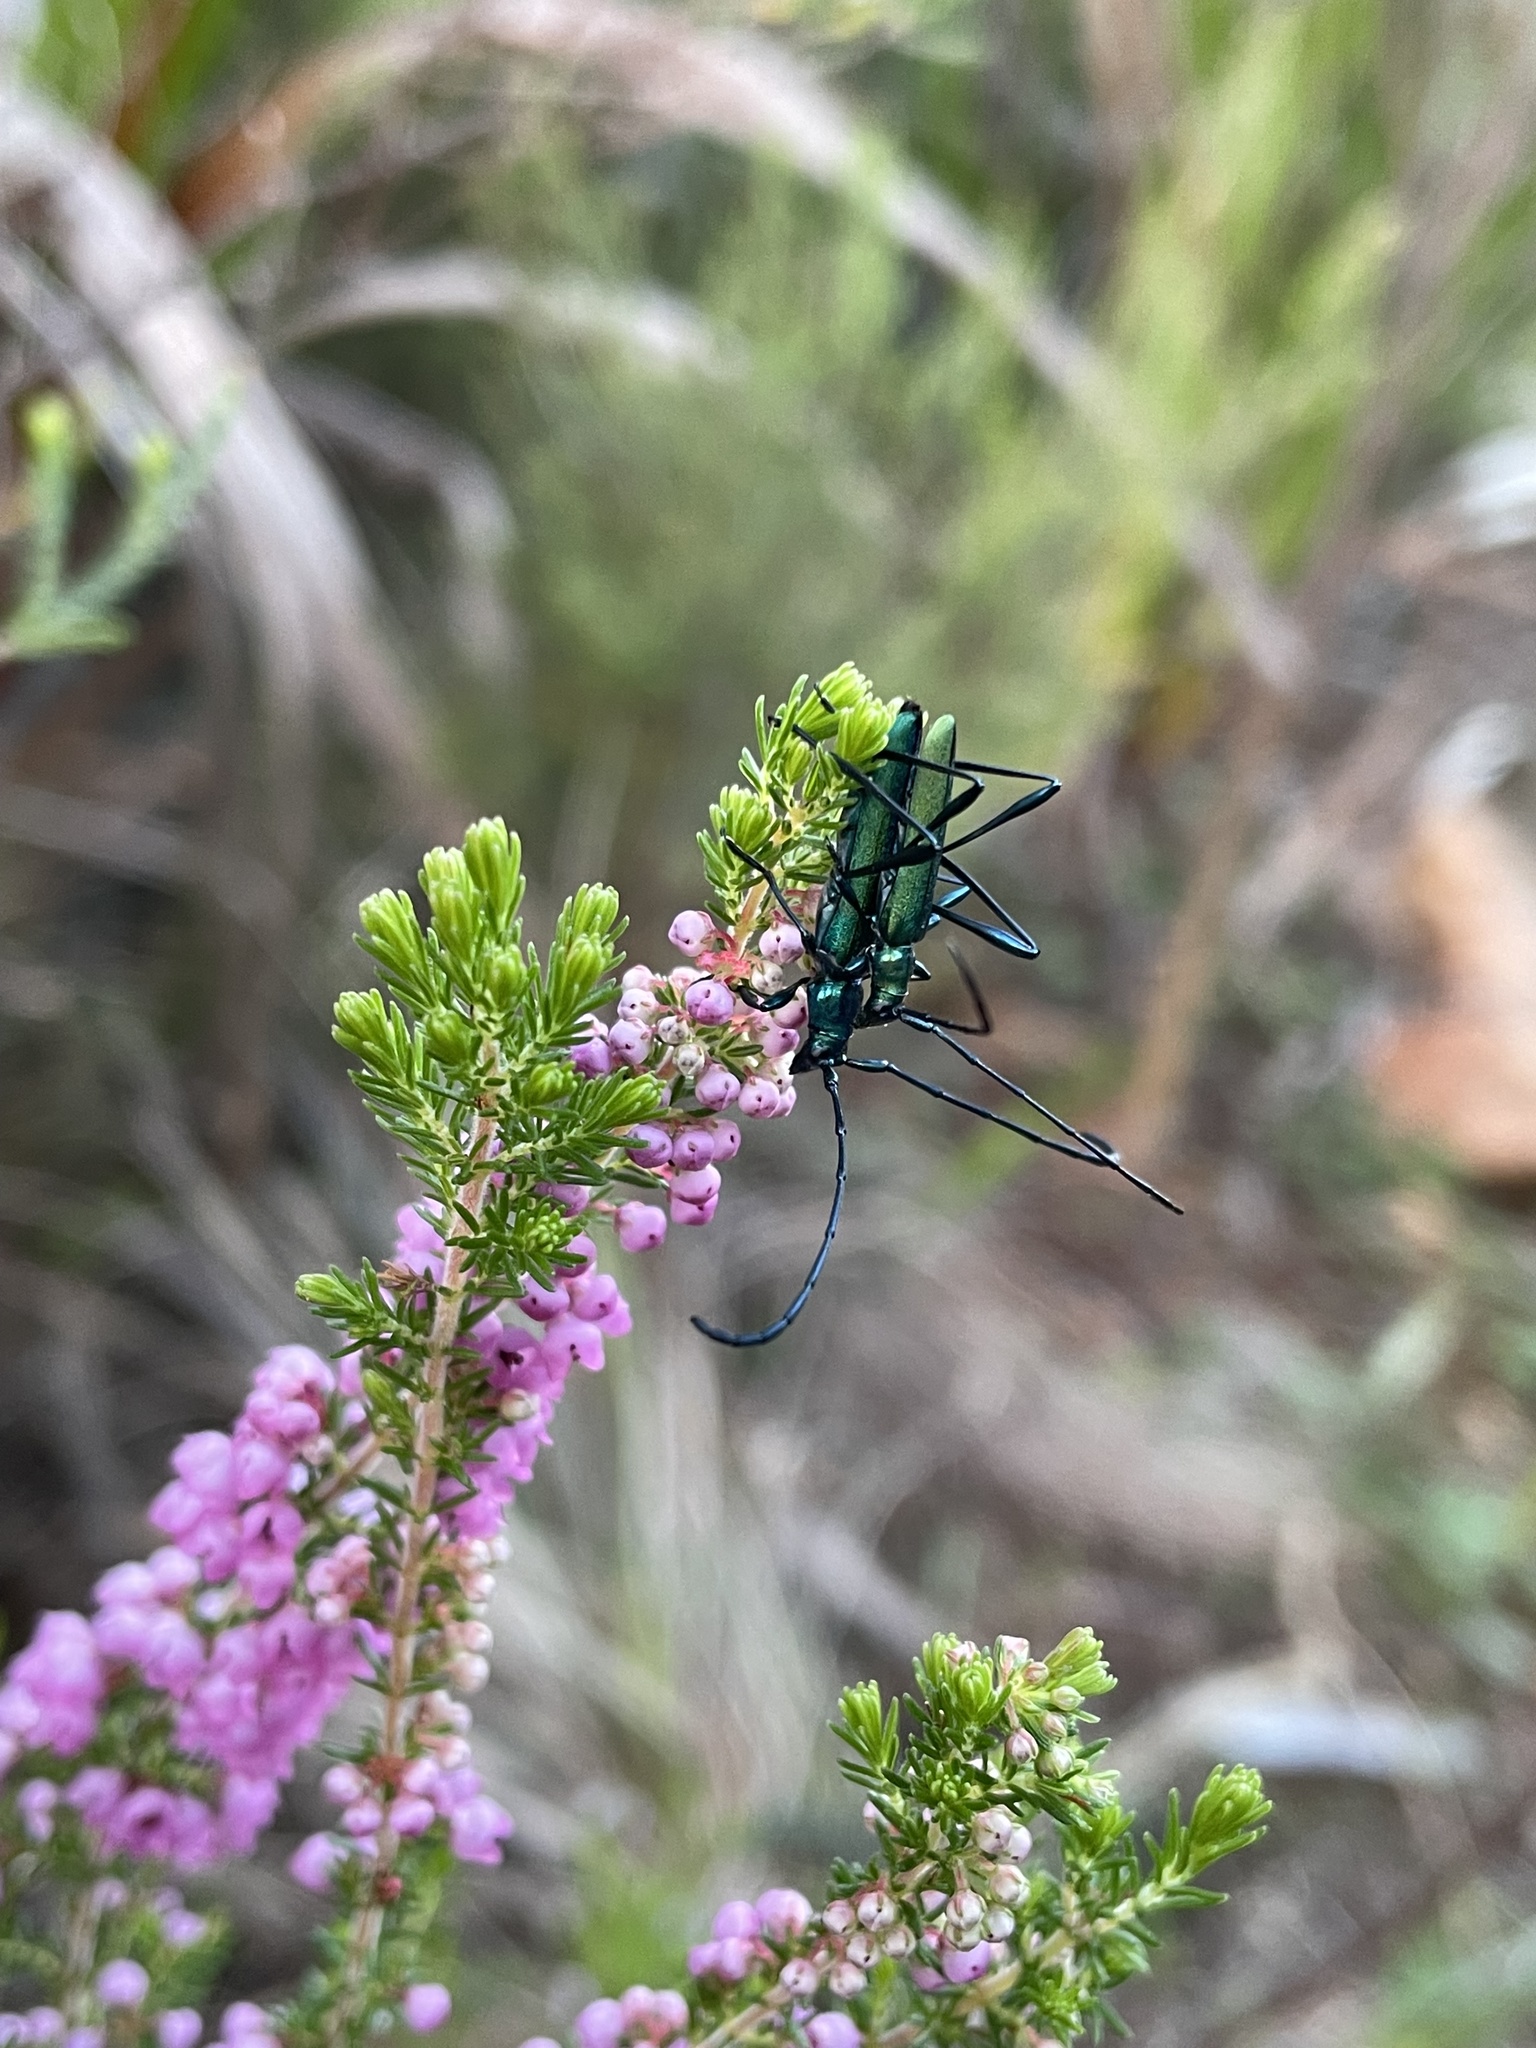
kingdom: Animalia
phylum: Arthropoda
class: Insecta
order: Coleoptera
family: Cerambycidae
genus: Promeces
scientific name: Promeces longipes
